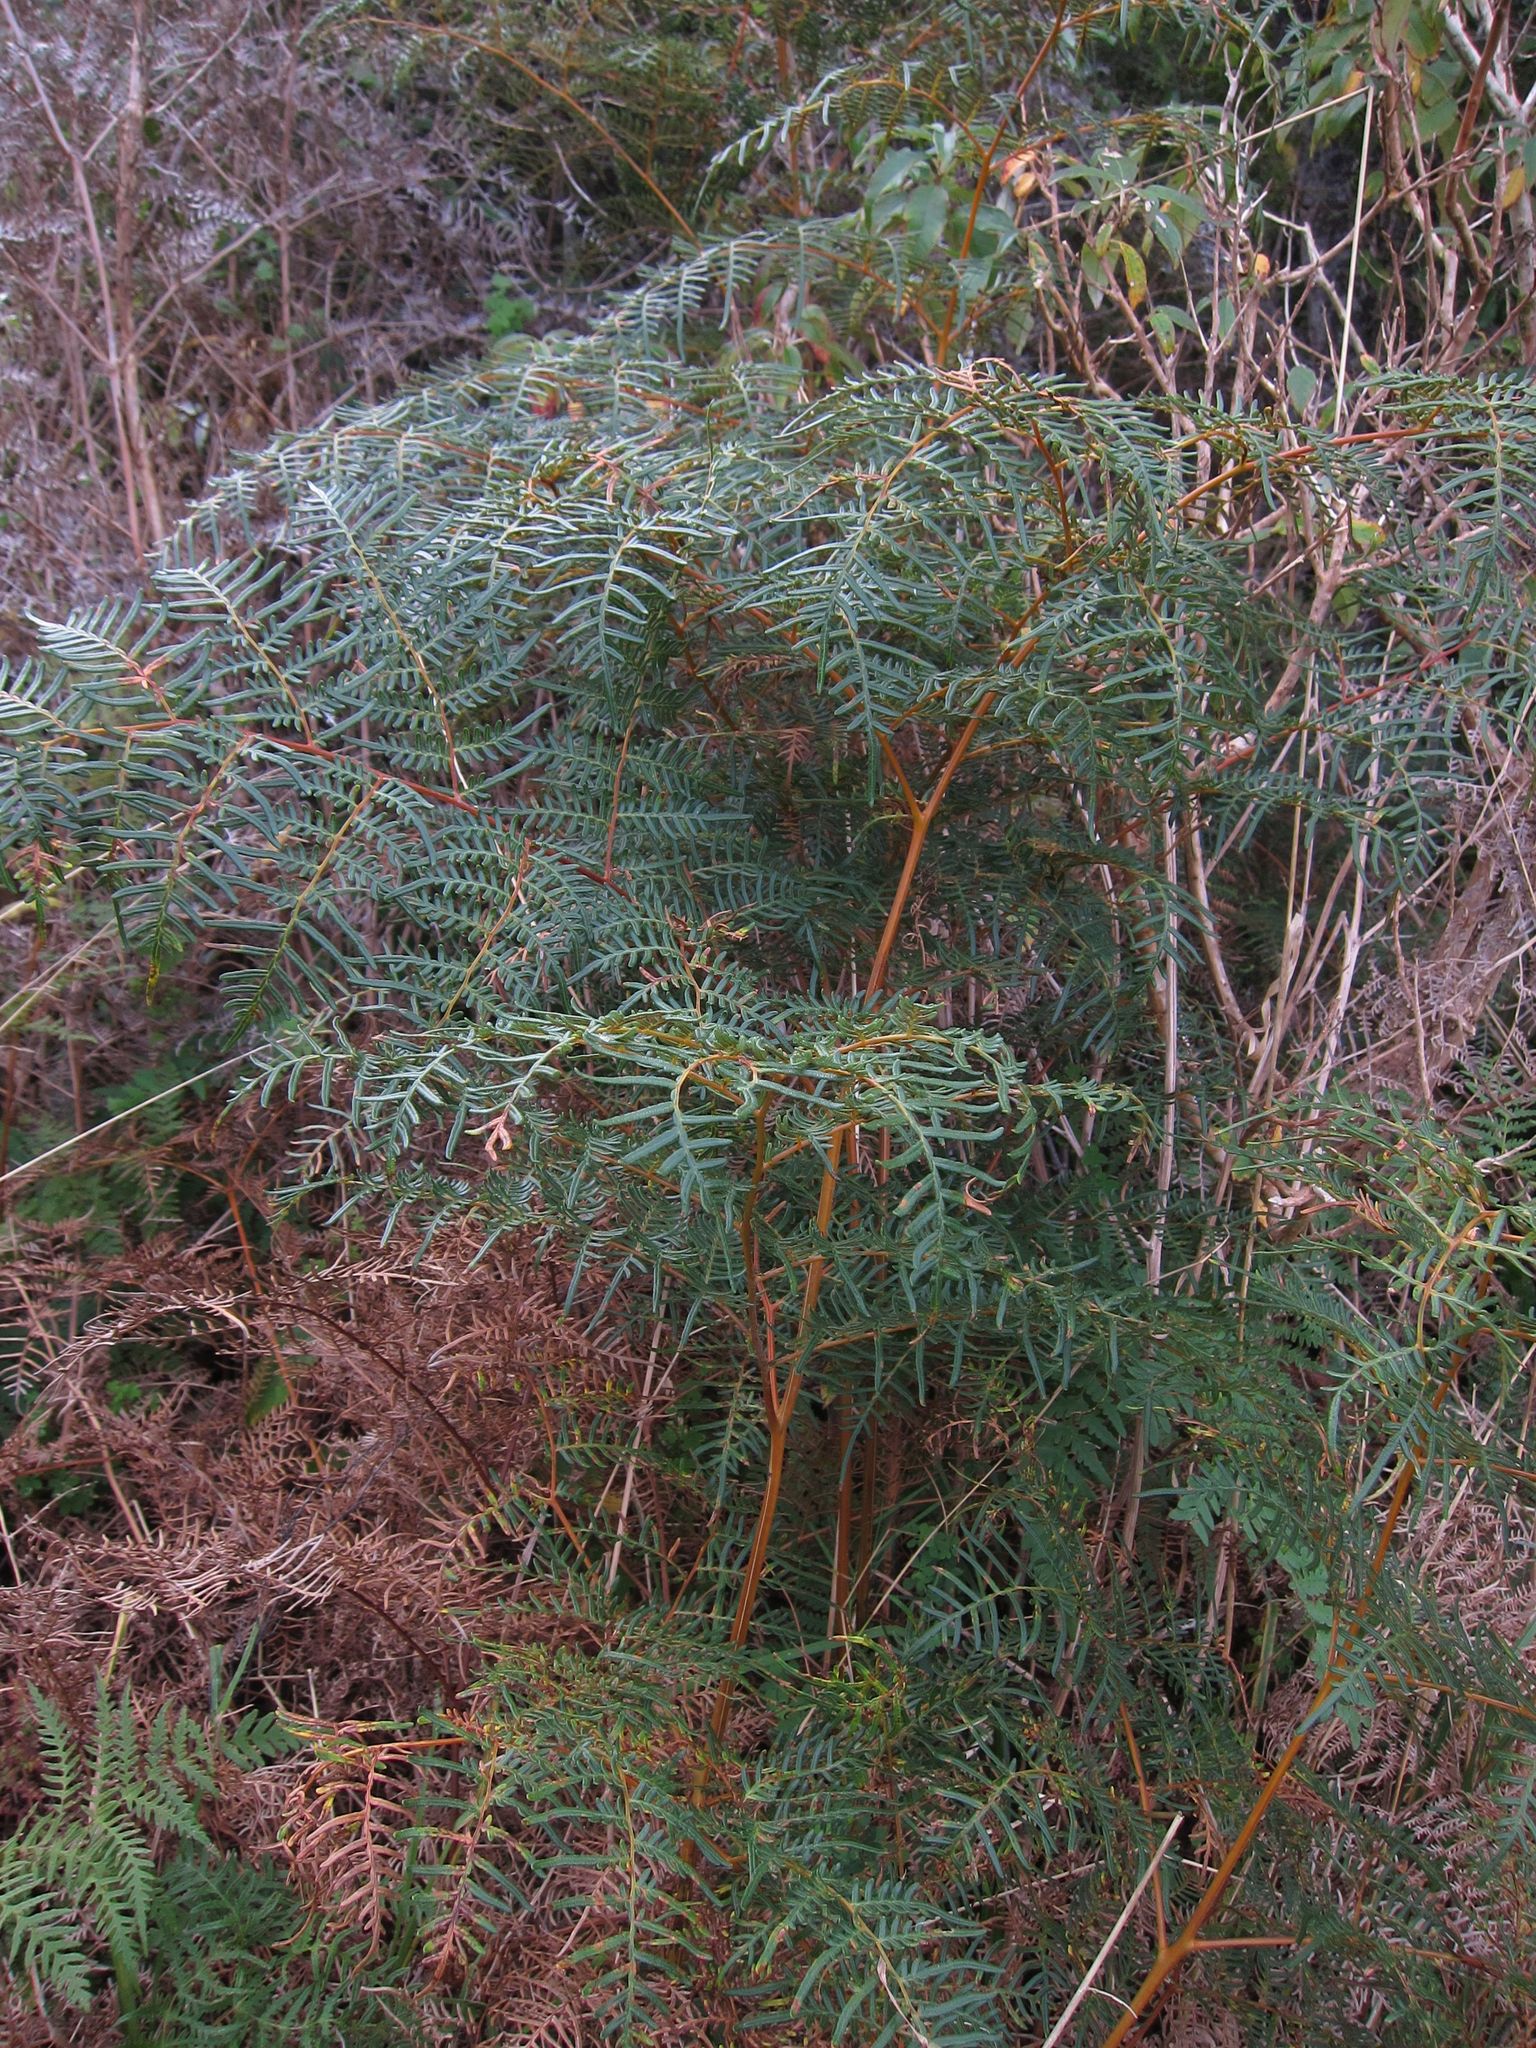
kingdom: Plantae
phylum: Tracheophyta
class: Polypodiopsida
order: Polypodiales
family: Dennstaedtiaceae
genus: Pteridium
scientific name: Pteridium esculentum
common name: Bracken fern
